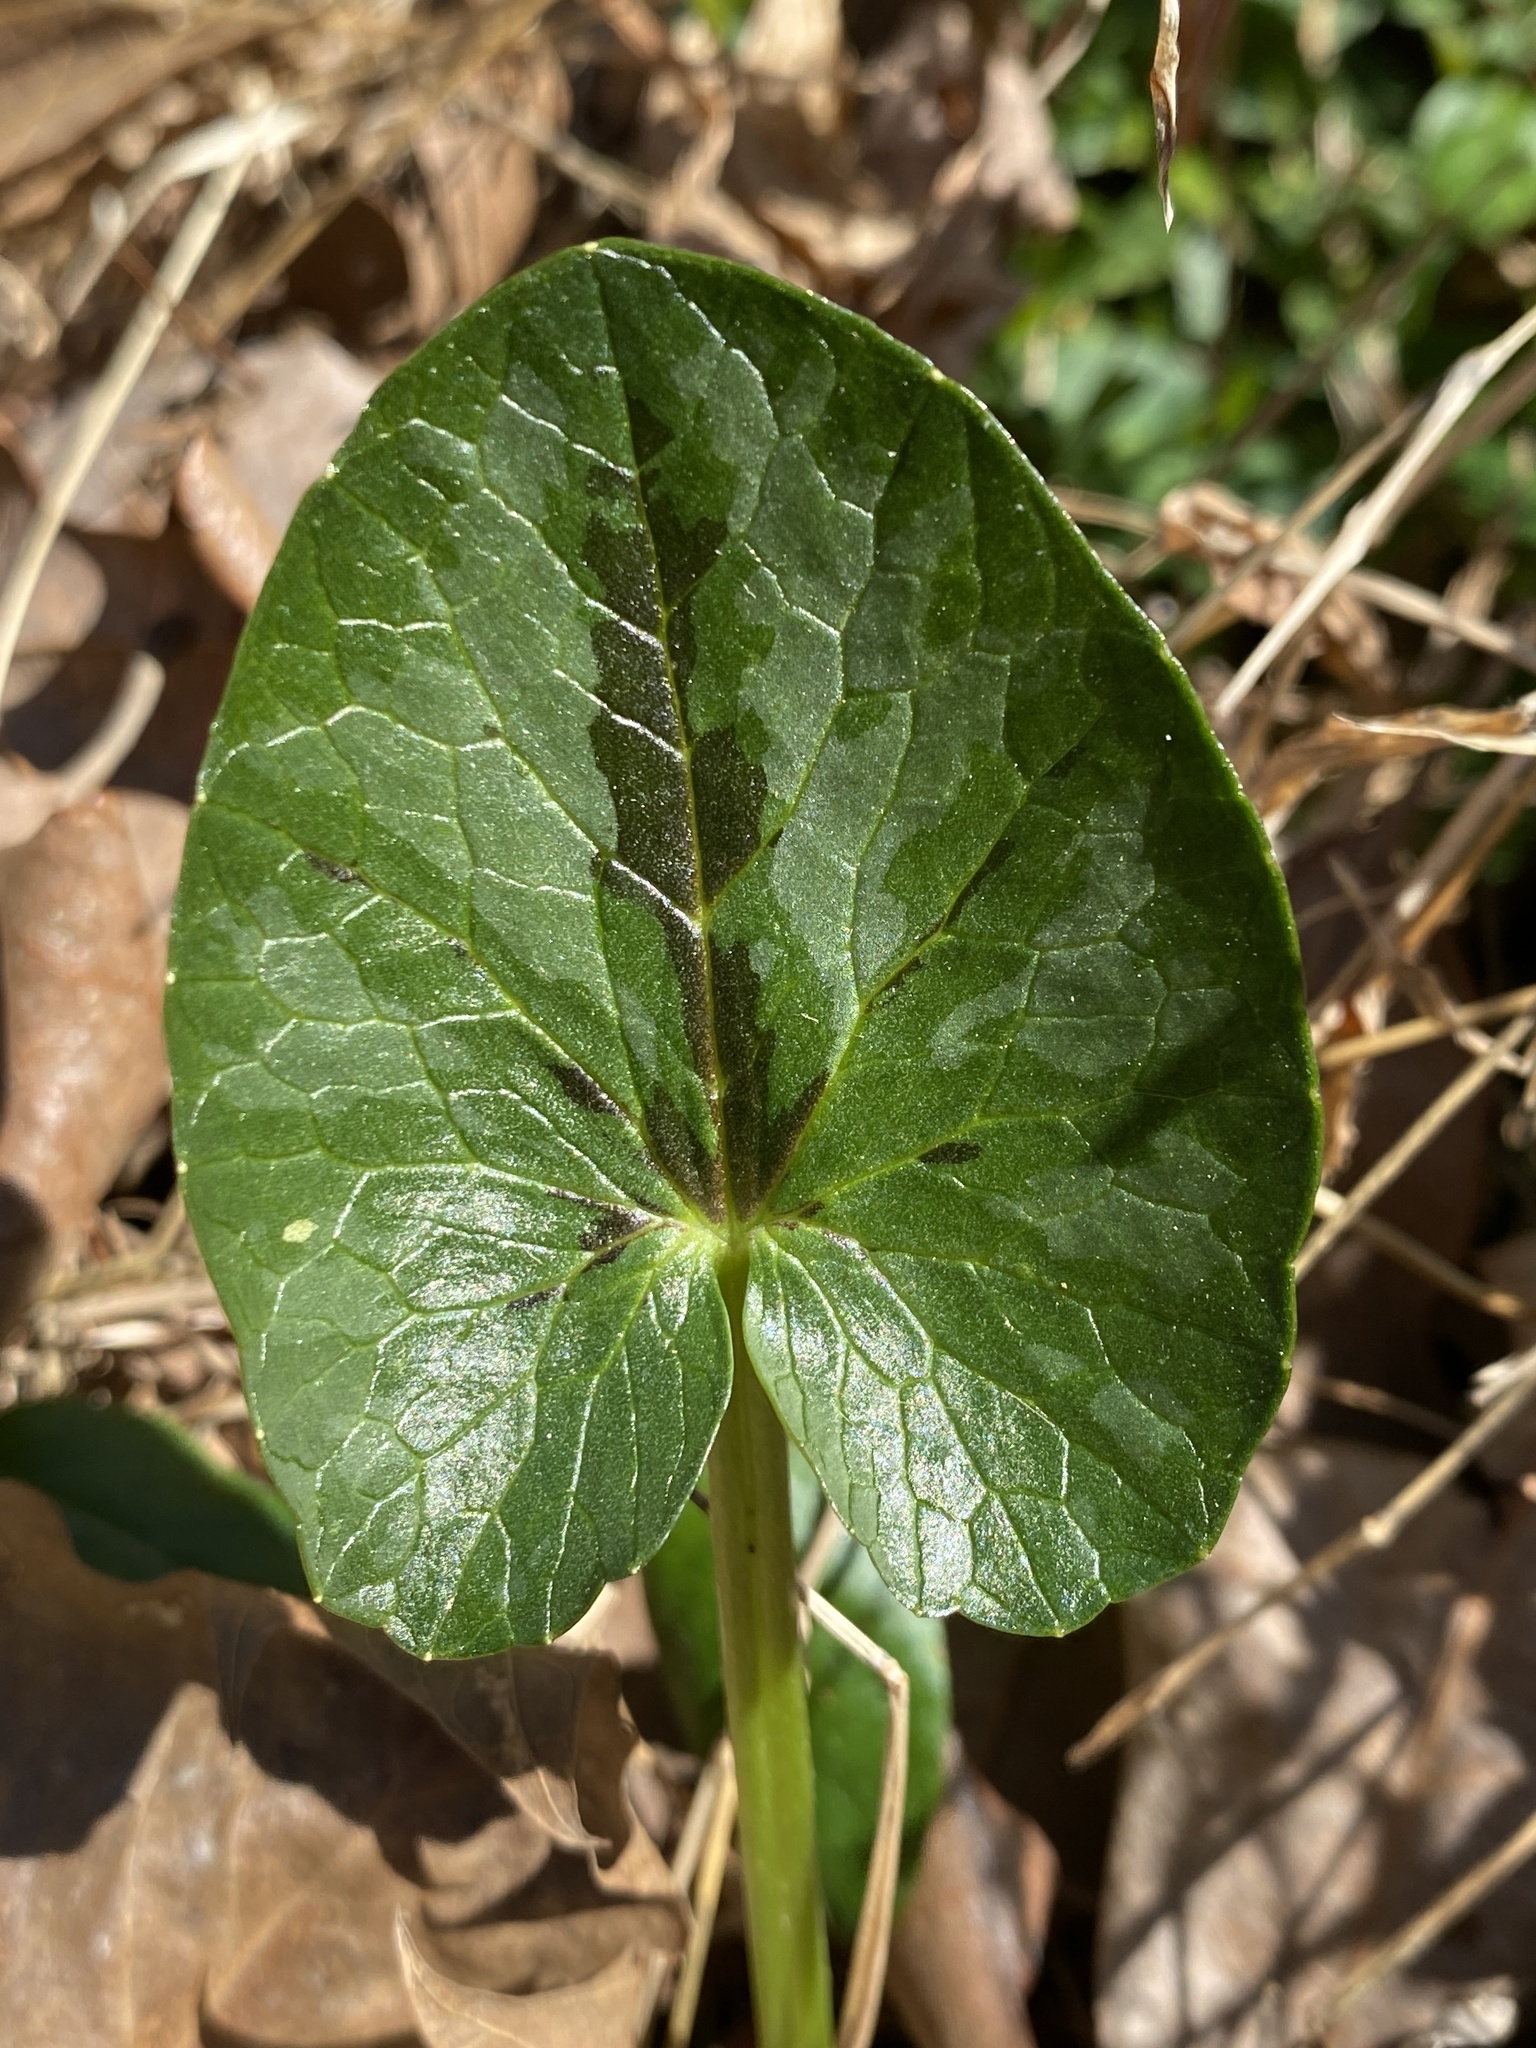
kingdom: Plantae
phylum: Tracheophyta
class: Magnoliopsida
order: Ranunculales
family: Ranunculaceae
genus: Ficaria
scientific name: Ficaria verna
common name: Lesser celandine
